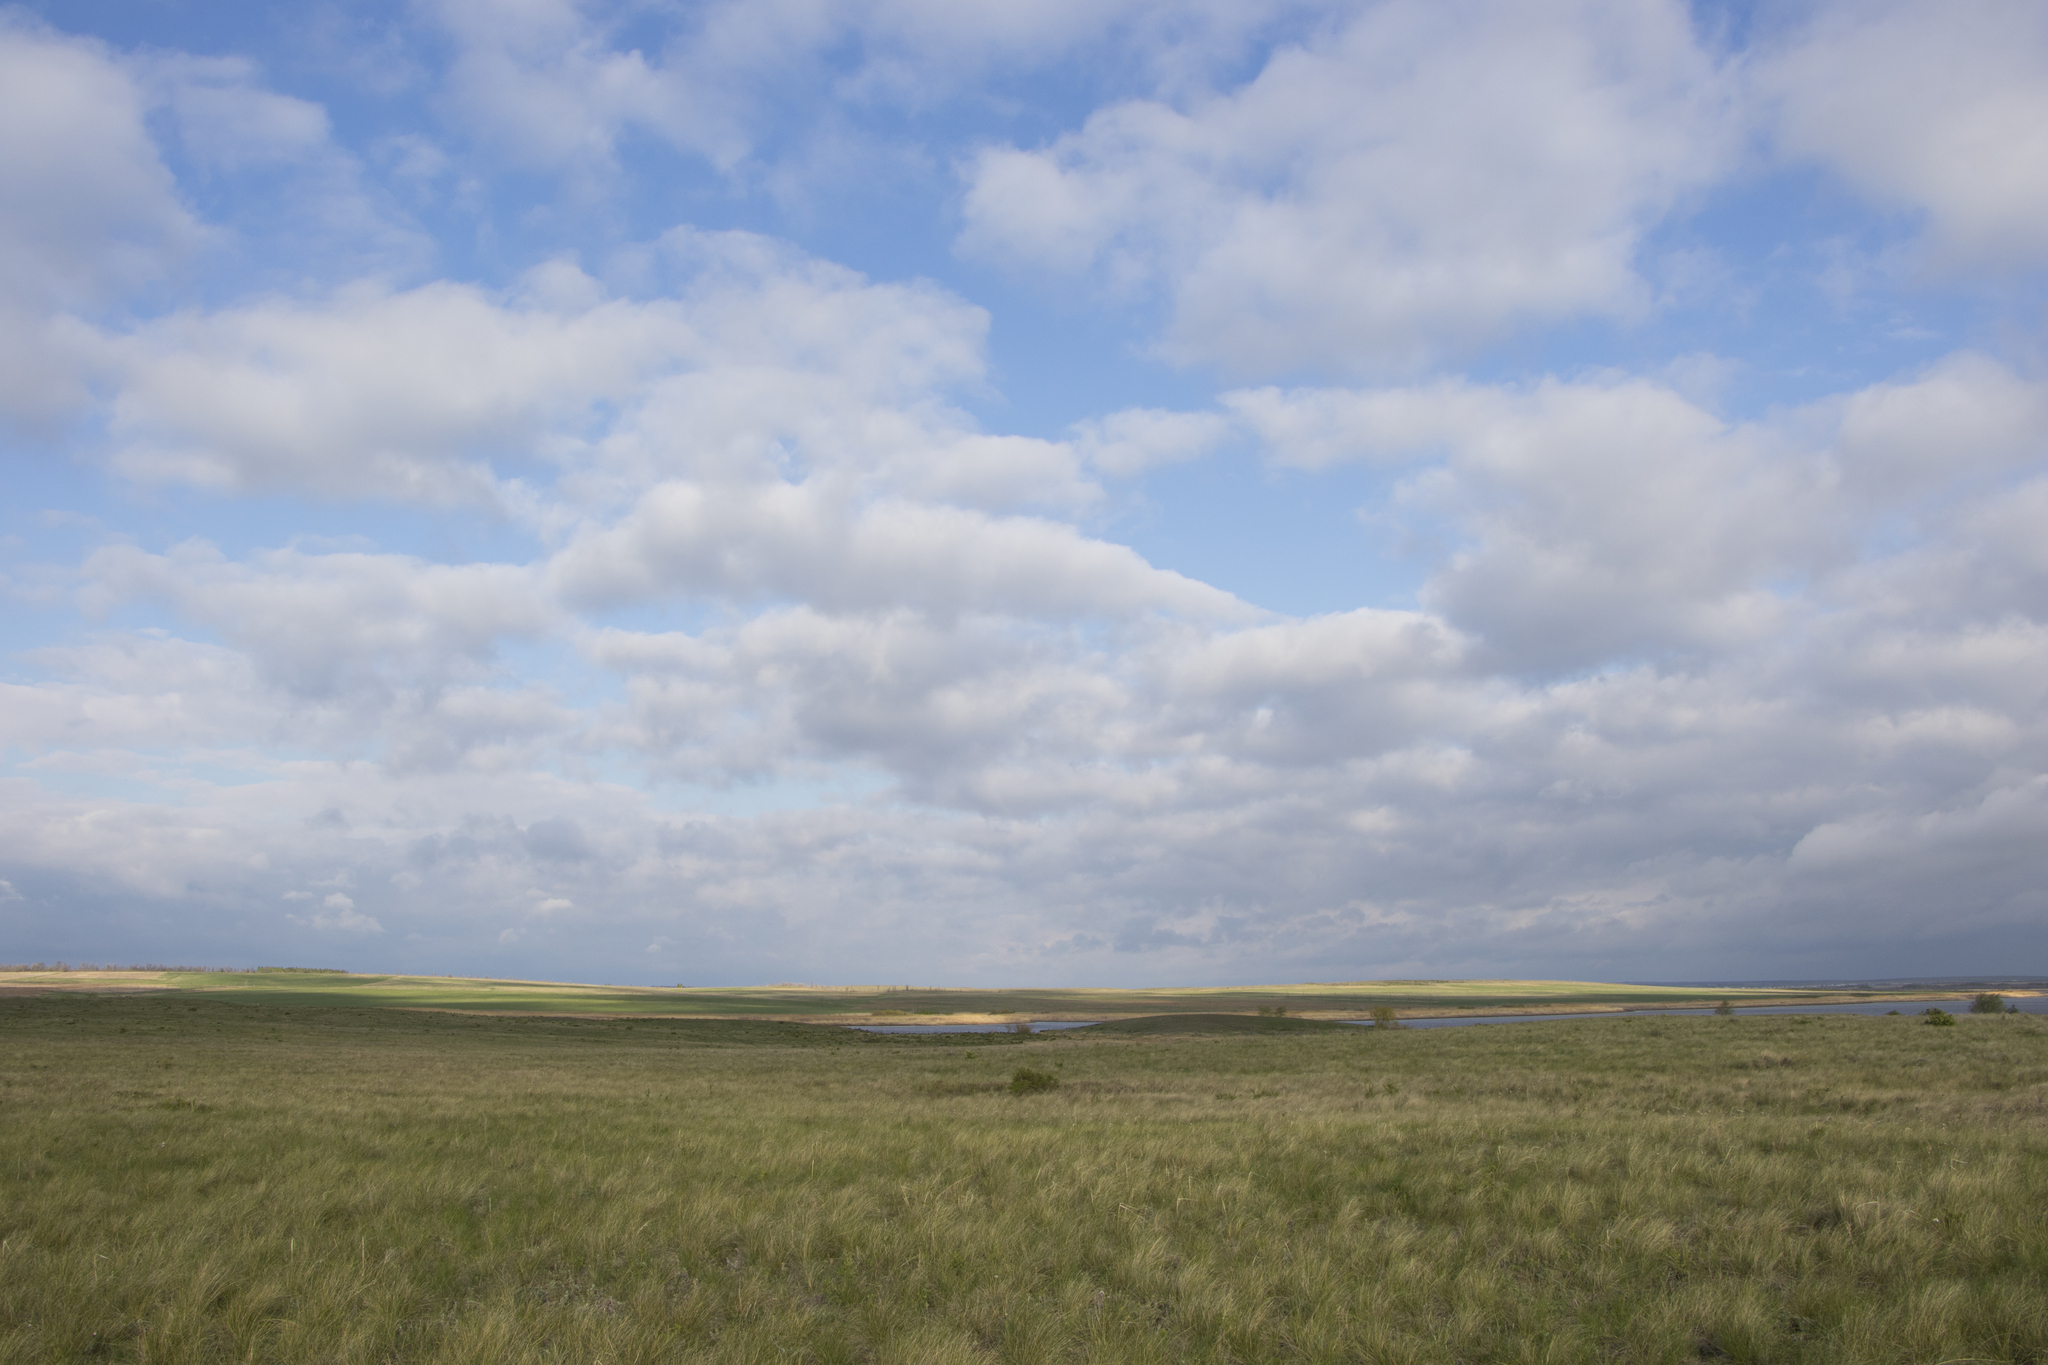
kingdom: Animalia
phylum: Chordata
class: Mammalia
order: Rodentia
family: Sciuridae
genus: Marmota
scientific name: Marmota bobak
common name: Bobak marmot
